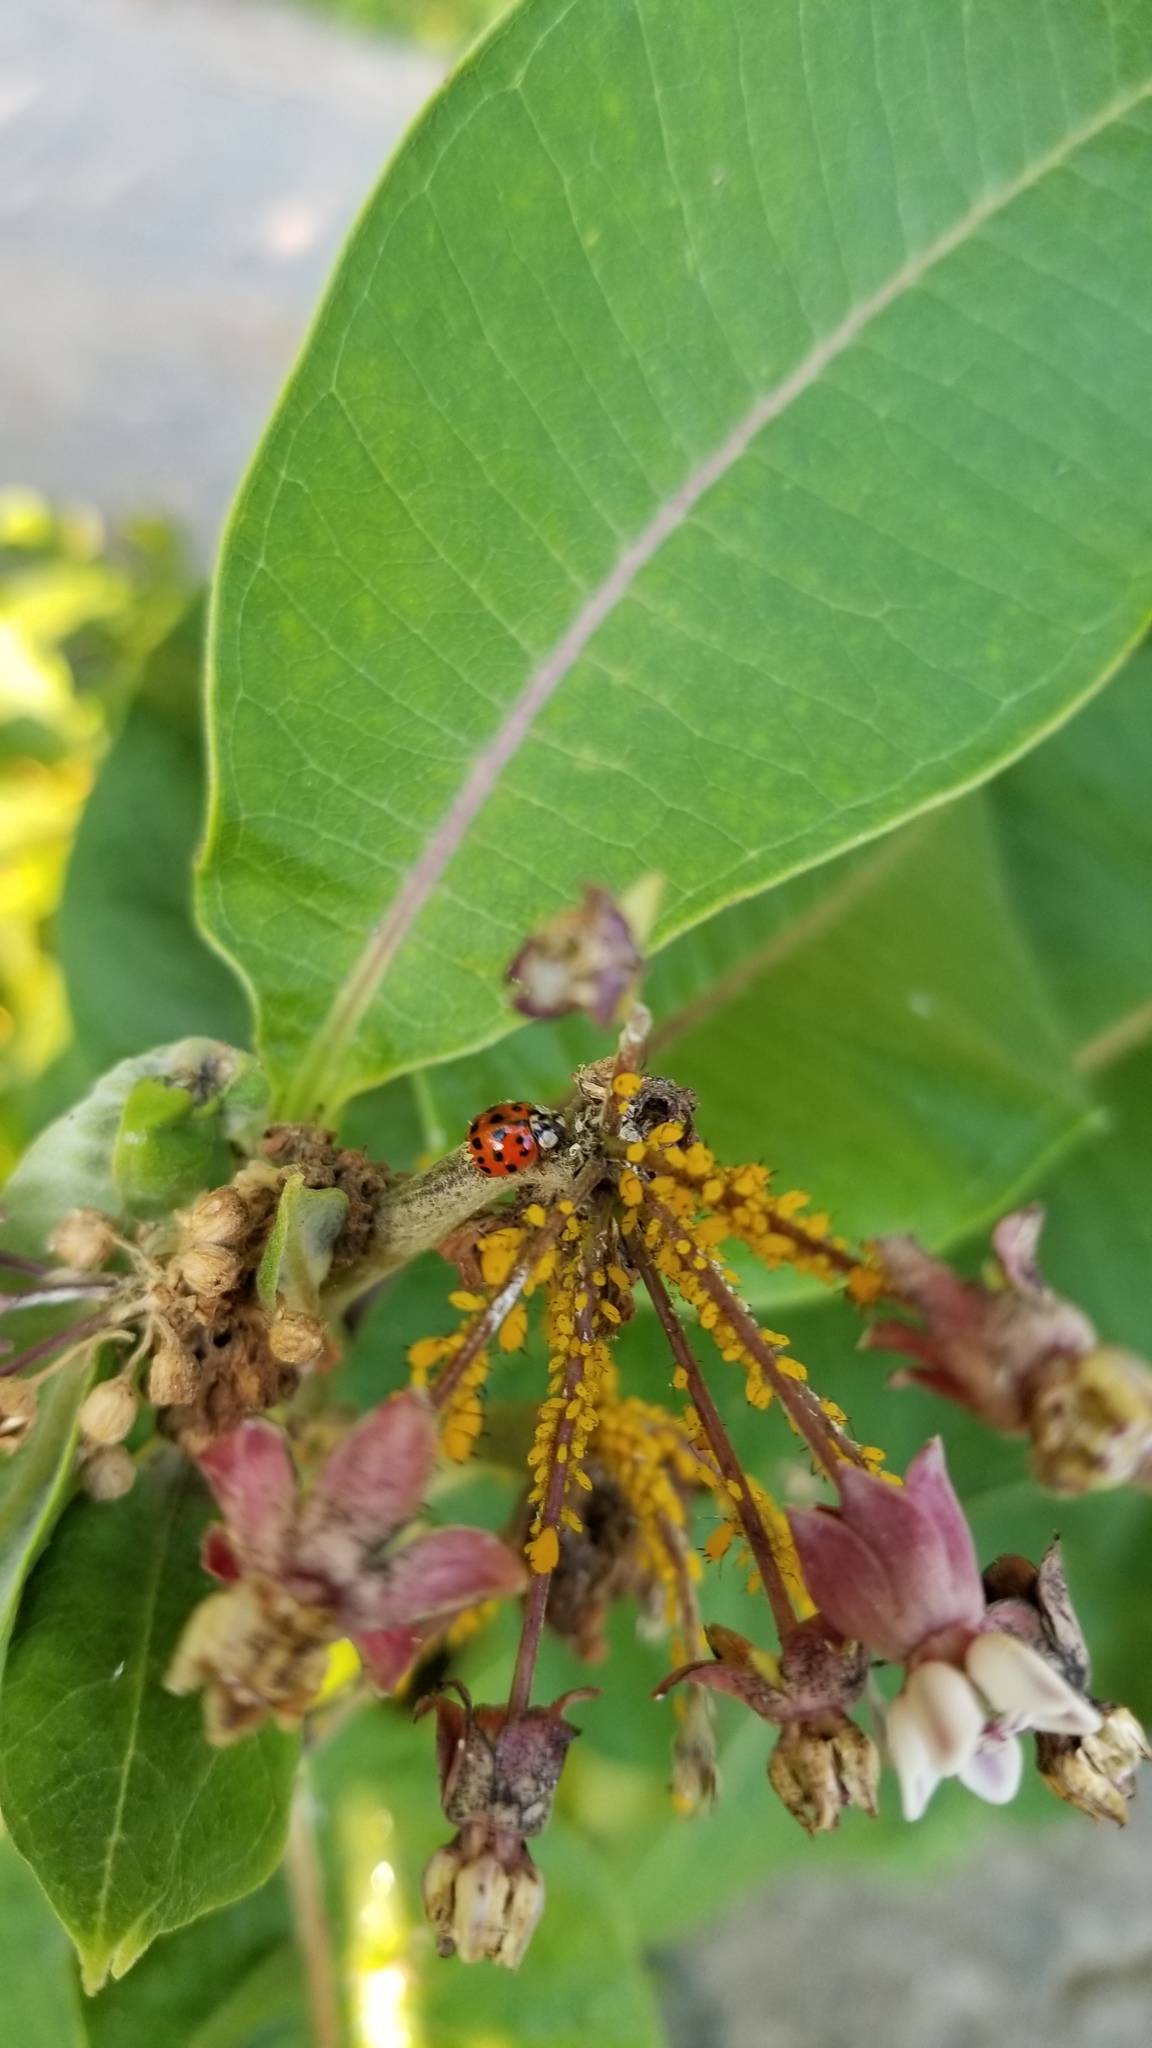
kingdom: Animalia
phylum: Arthropoda
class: Insecta
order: Hemiptera
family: Aphididae
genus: Aphis
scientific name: Aphis nerii
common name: Oleander aphid
